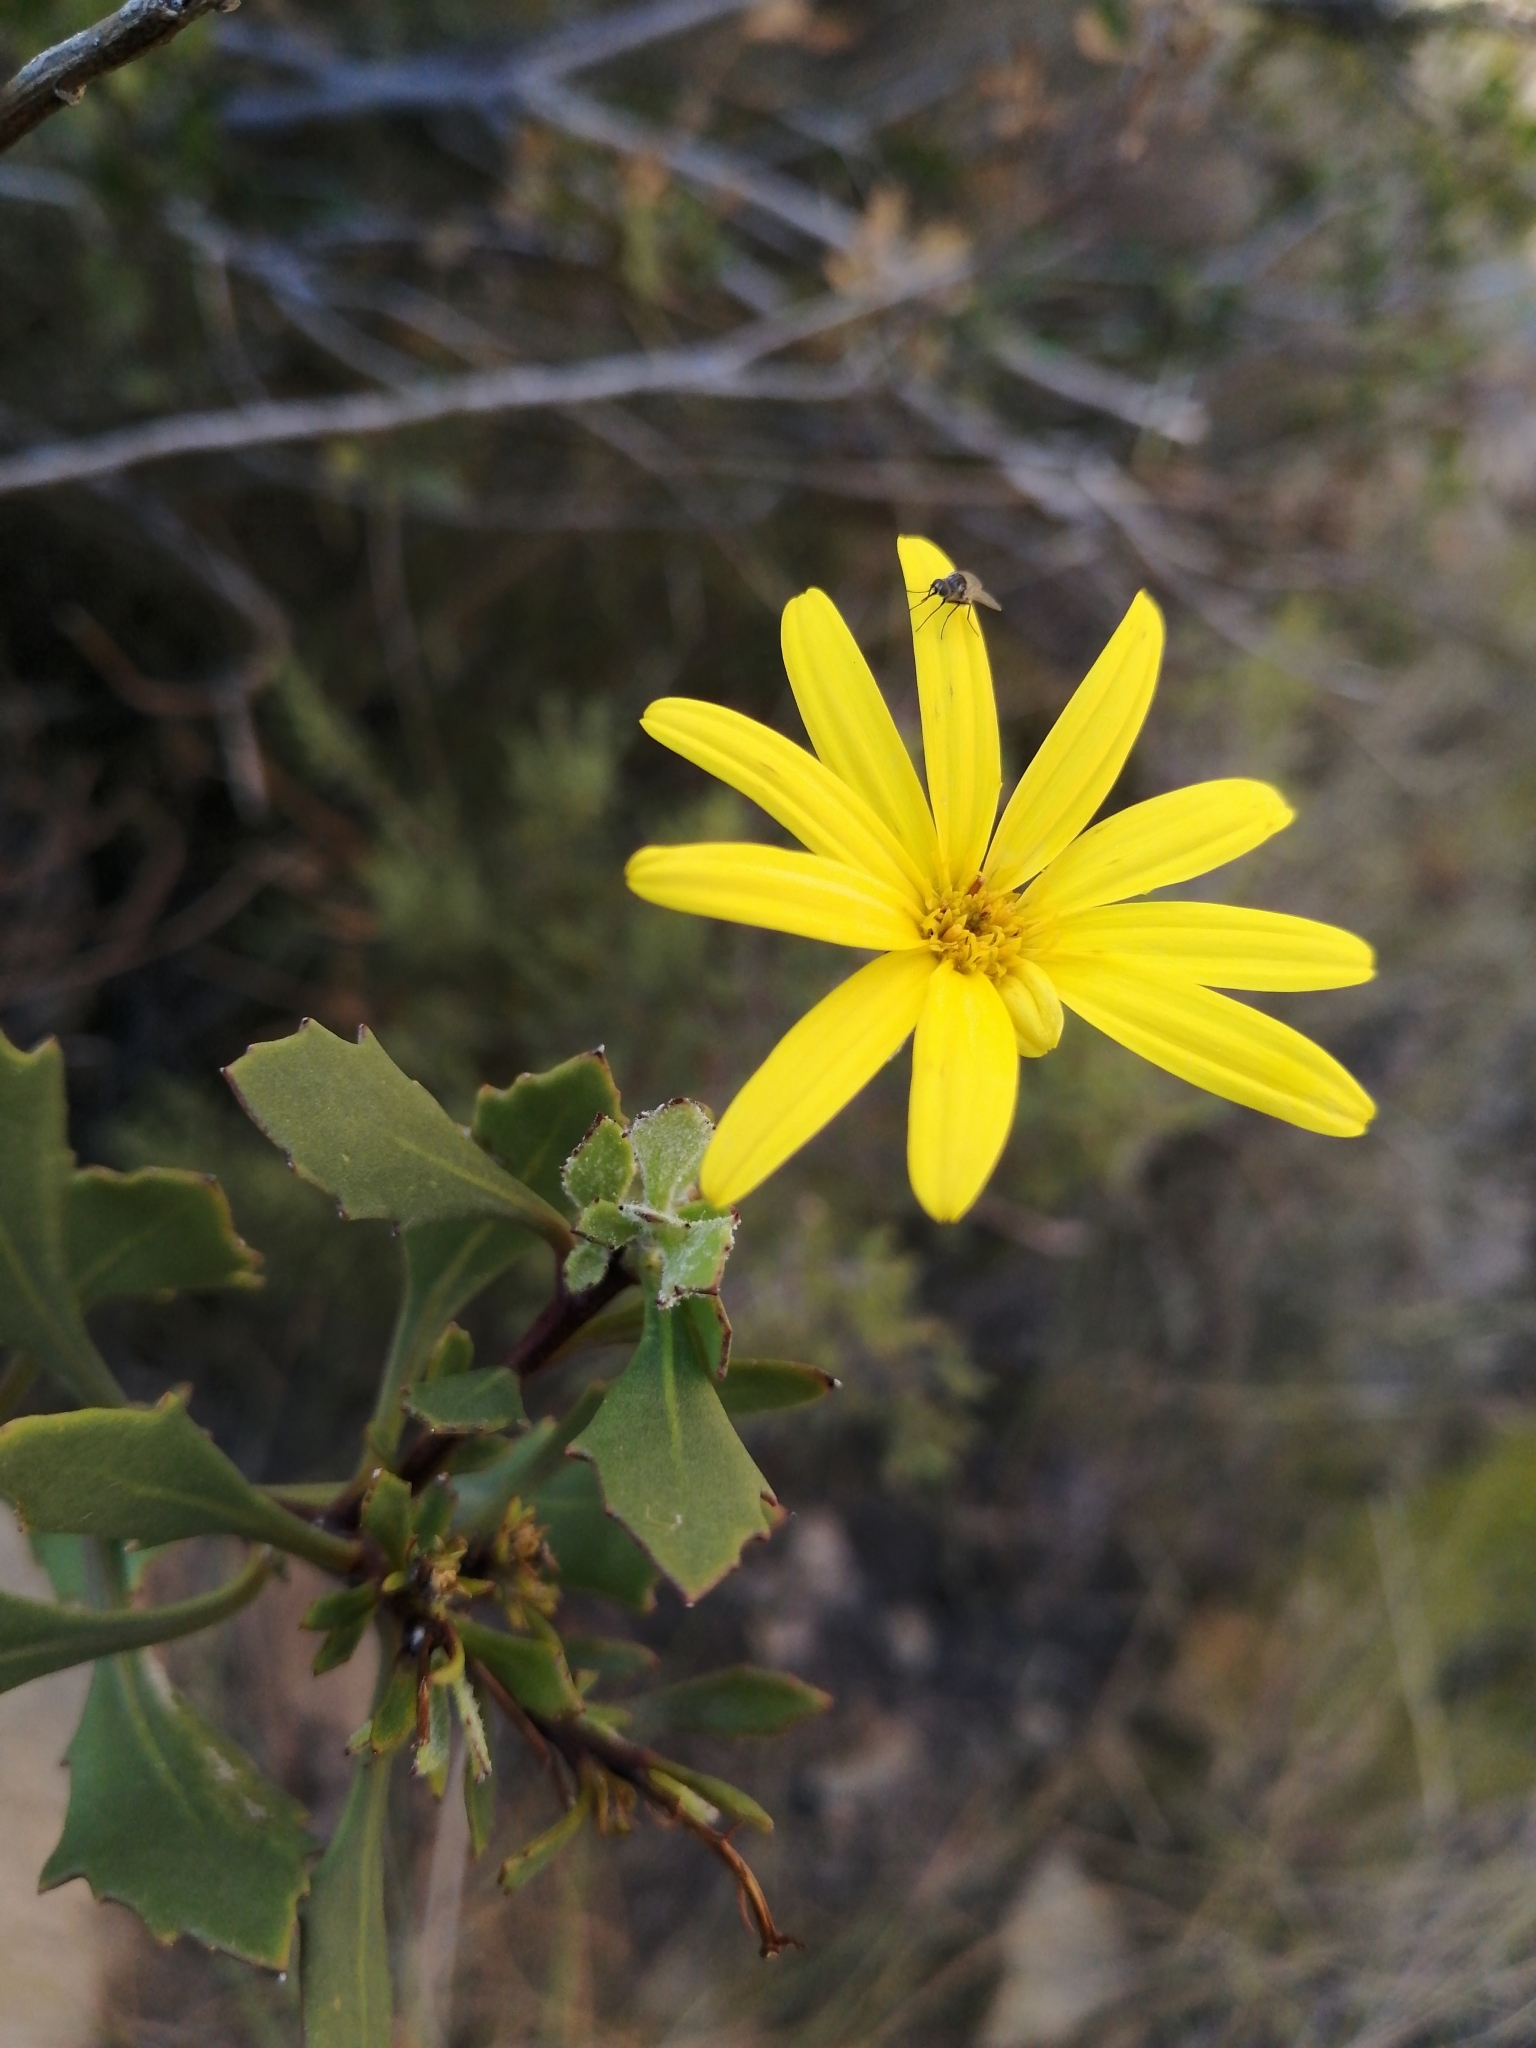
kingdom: Plantae
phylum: Tracheophyta
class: Magnoliopsida
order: Asterales
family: Asteraceae
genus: Osteospermum
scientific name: Osteospermum moniliferum
